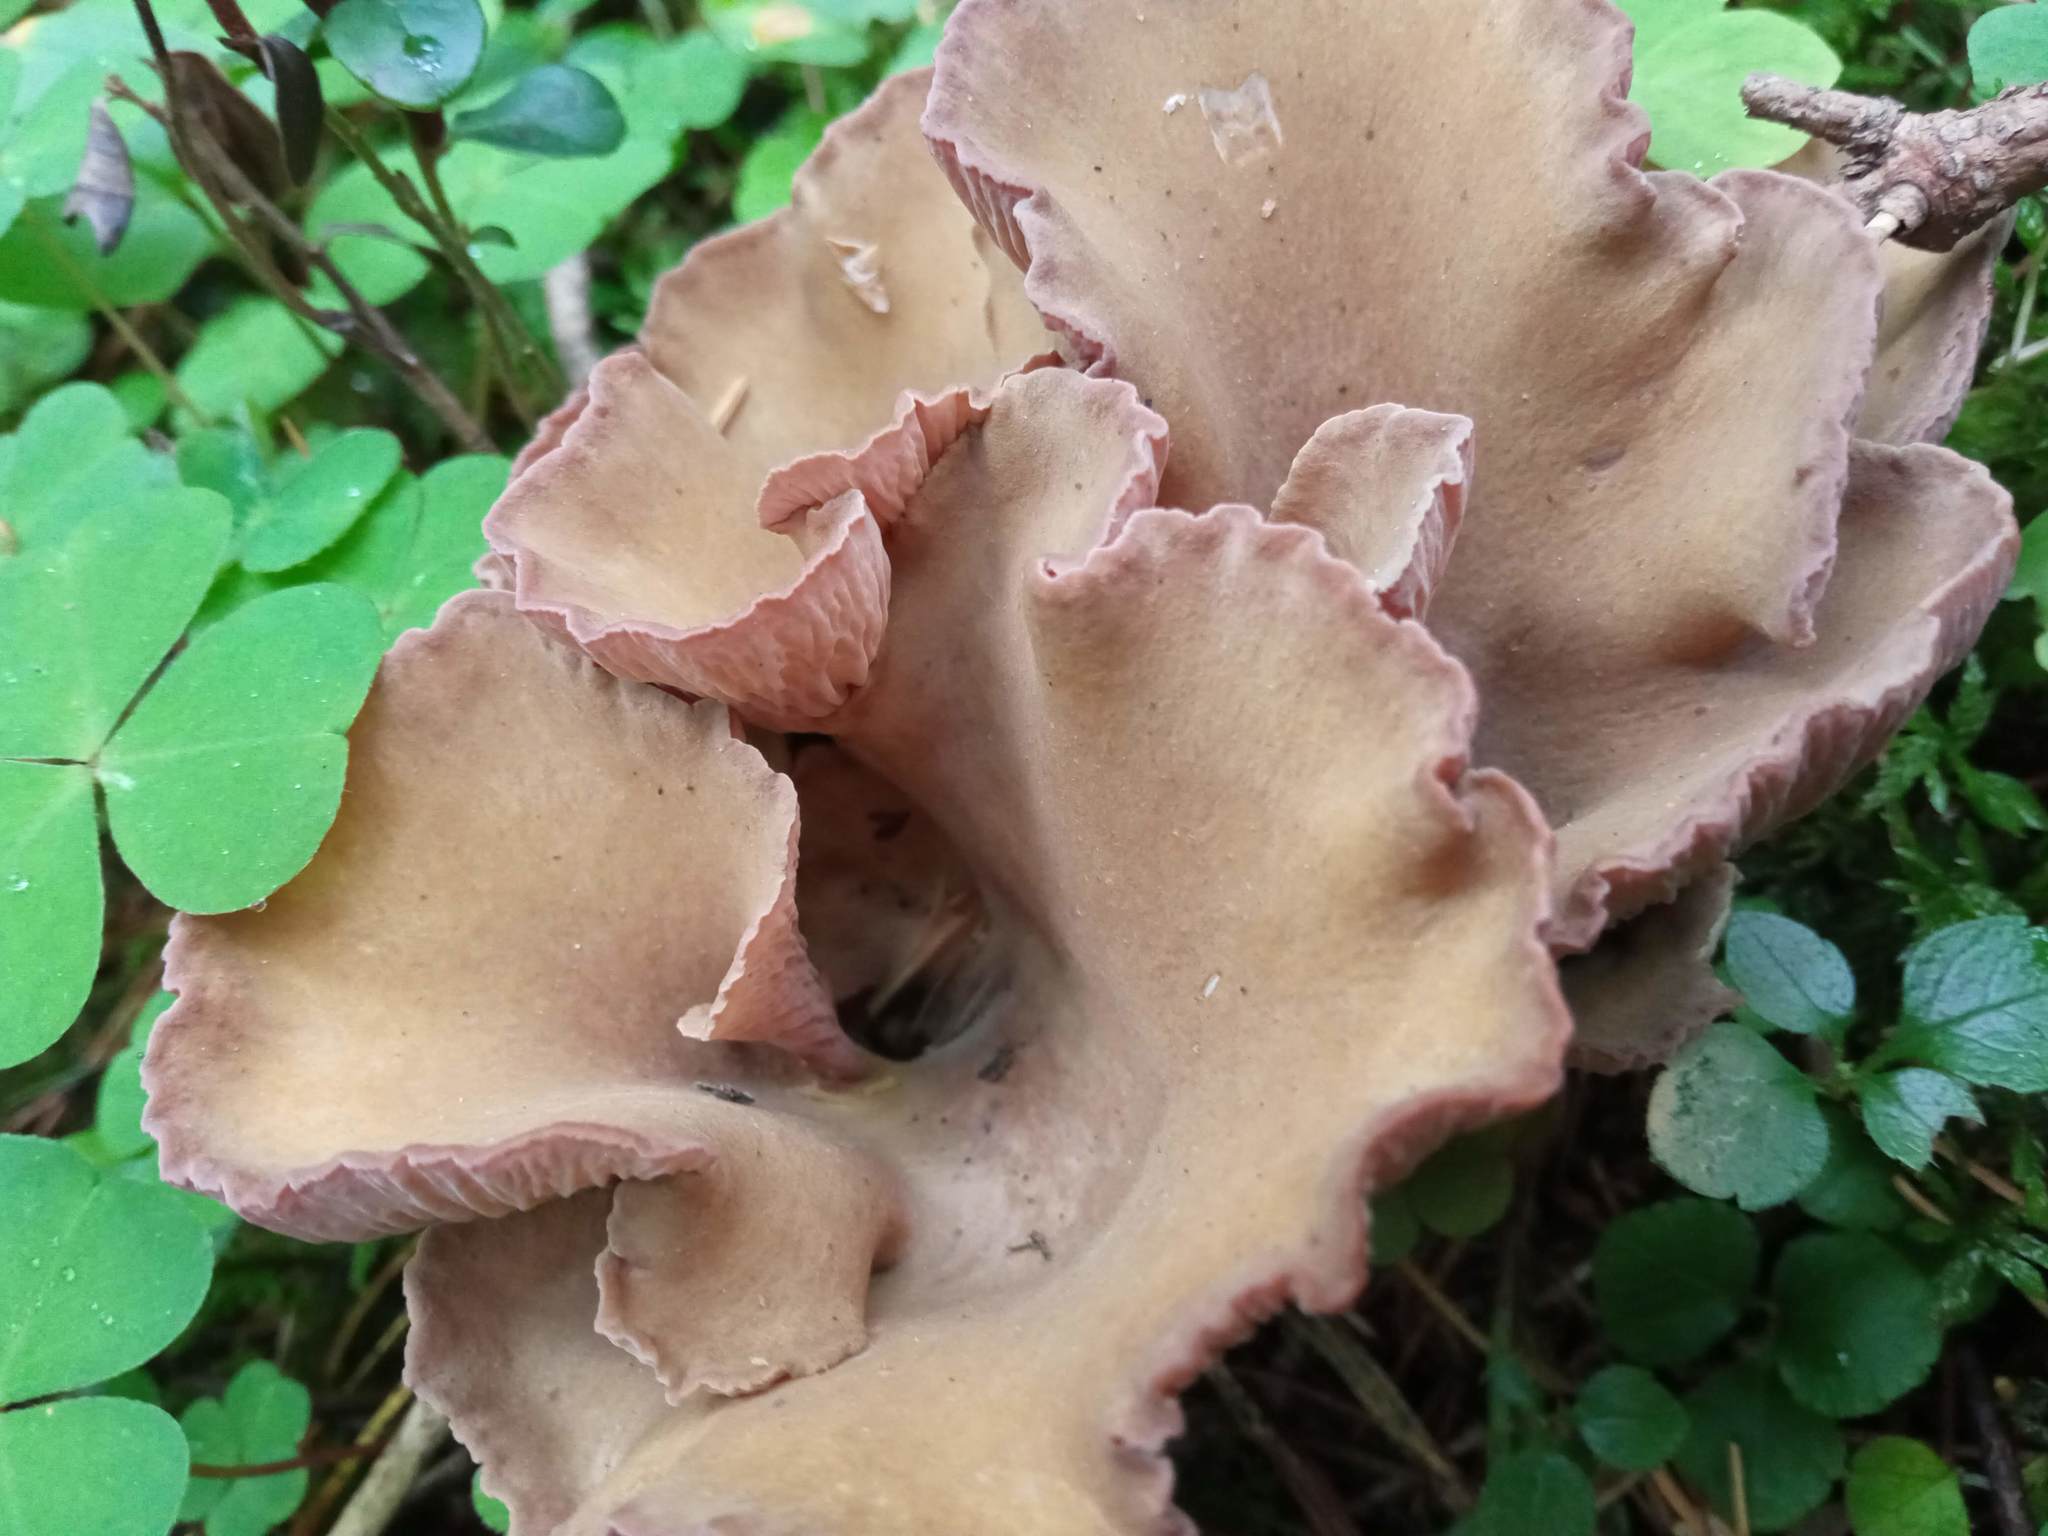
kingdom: Fungi
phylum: Basidiomycota
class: Agaricomycetes
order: Gomphales
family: Gomphaceae
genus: Gomphus
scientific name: Gomphus clavatus
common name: Pig's ear
